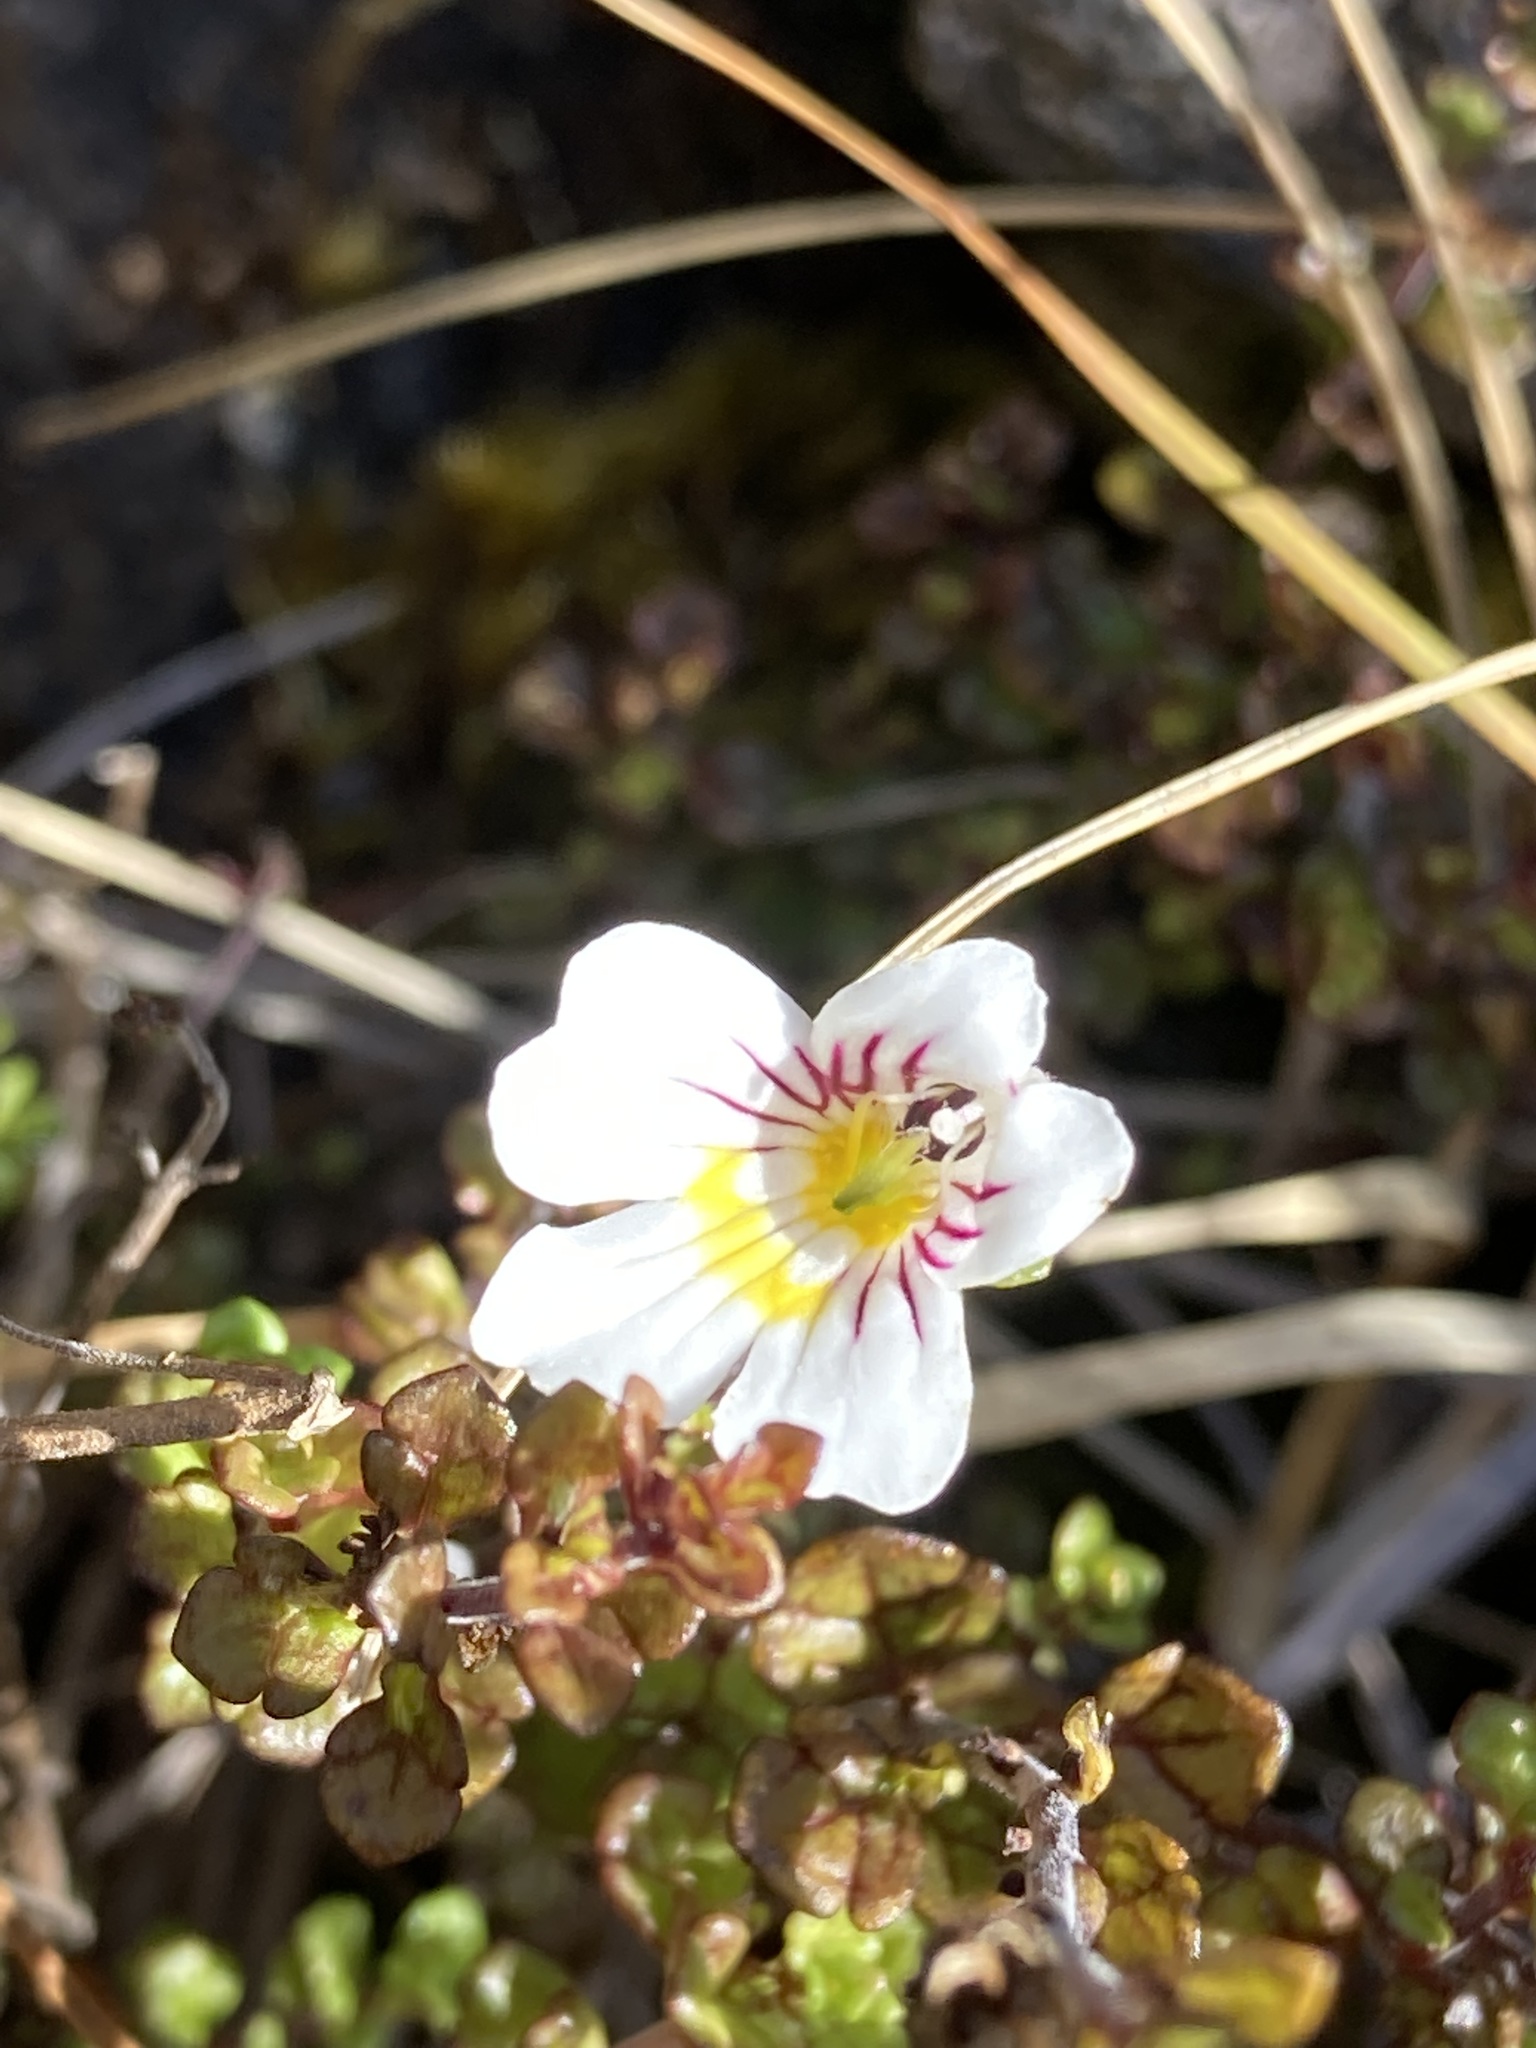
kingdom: Plantae
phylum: Tracheophyta
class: Magnoliopsida
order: Lamiales
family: Orobanchaceae
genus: Euphrasia
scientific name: Euphrasia cuneata
